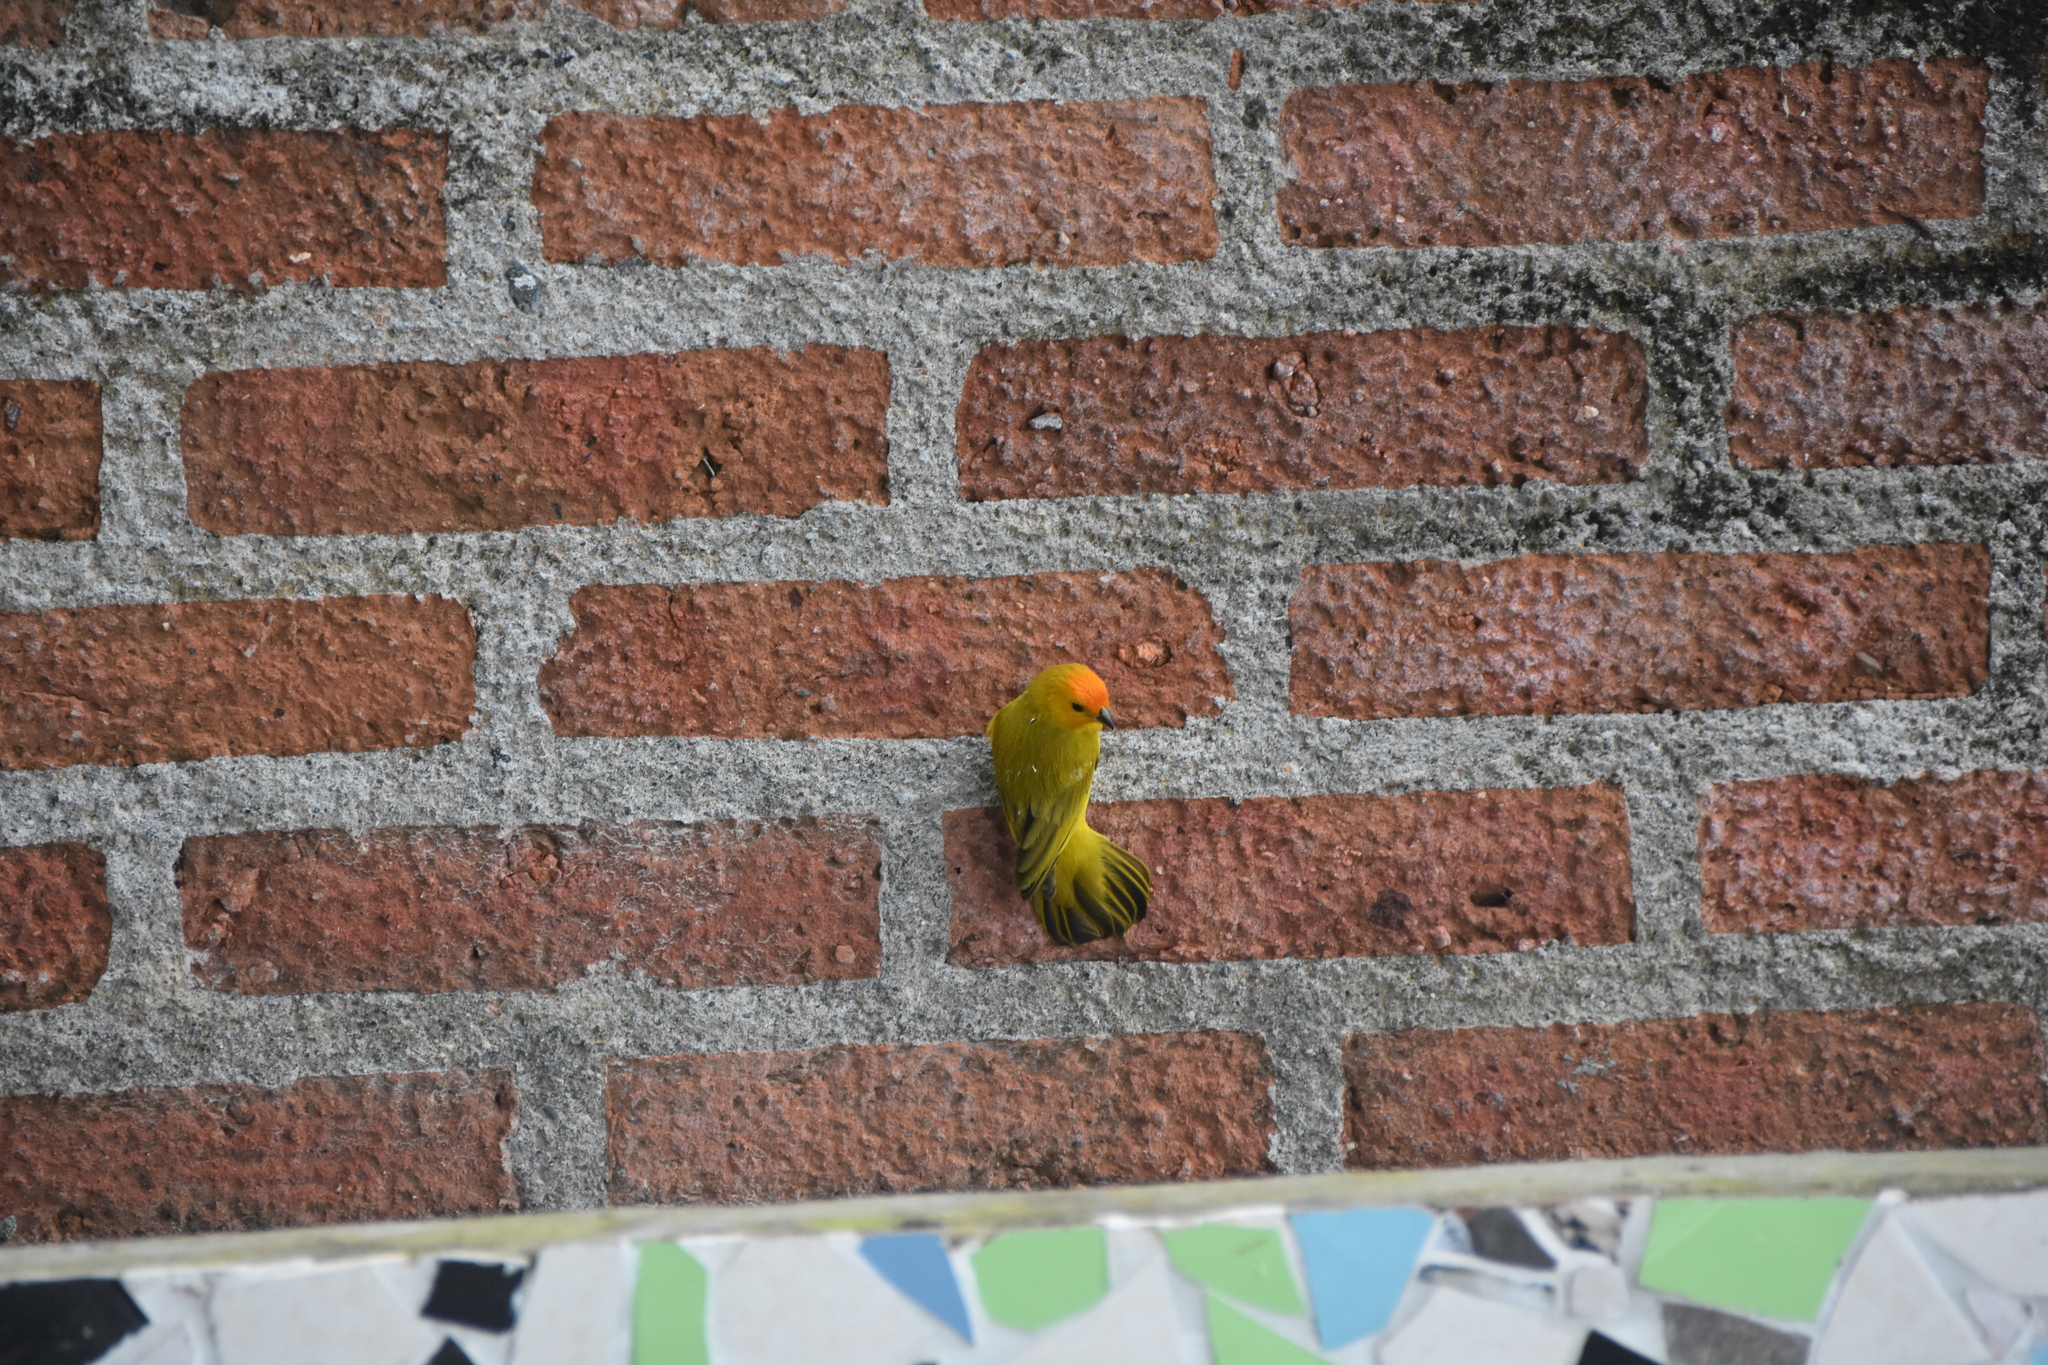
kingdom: Animalia
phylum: Chordata
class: Aves
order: Passeriformes
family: Thraupidae
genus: Sicalis
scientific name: Sicalis flaveola
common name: Saffron finch
